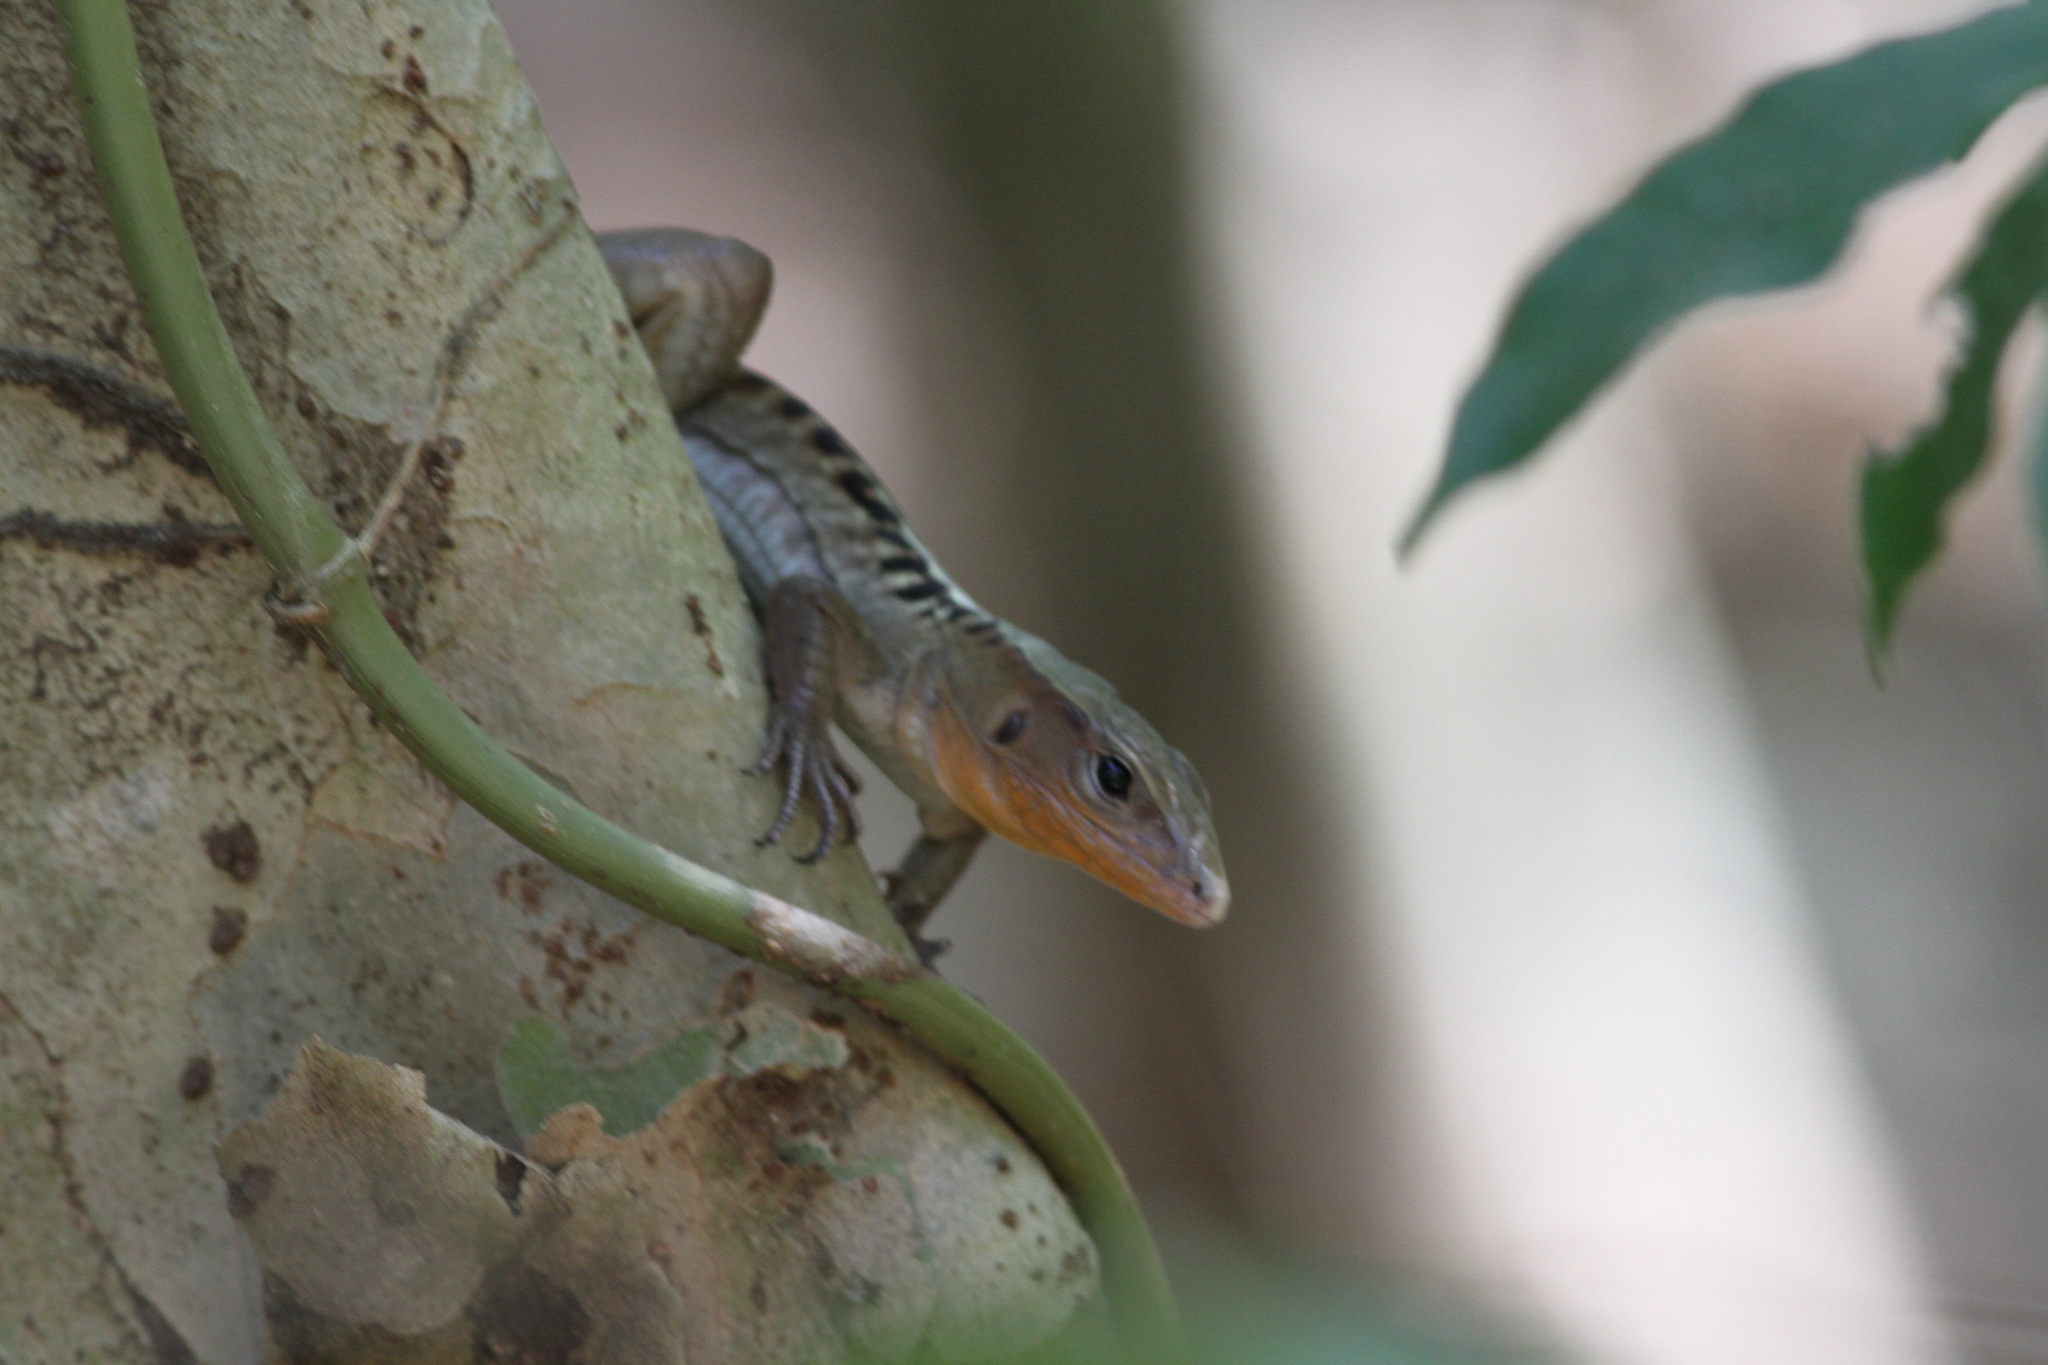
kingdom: Animalia
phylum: Chordata
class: Squamata
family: Teiidae
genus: Holcosus
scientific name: Holcosus leptophrys
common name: Delicate ameiva
